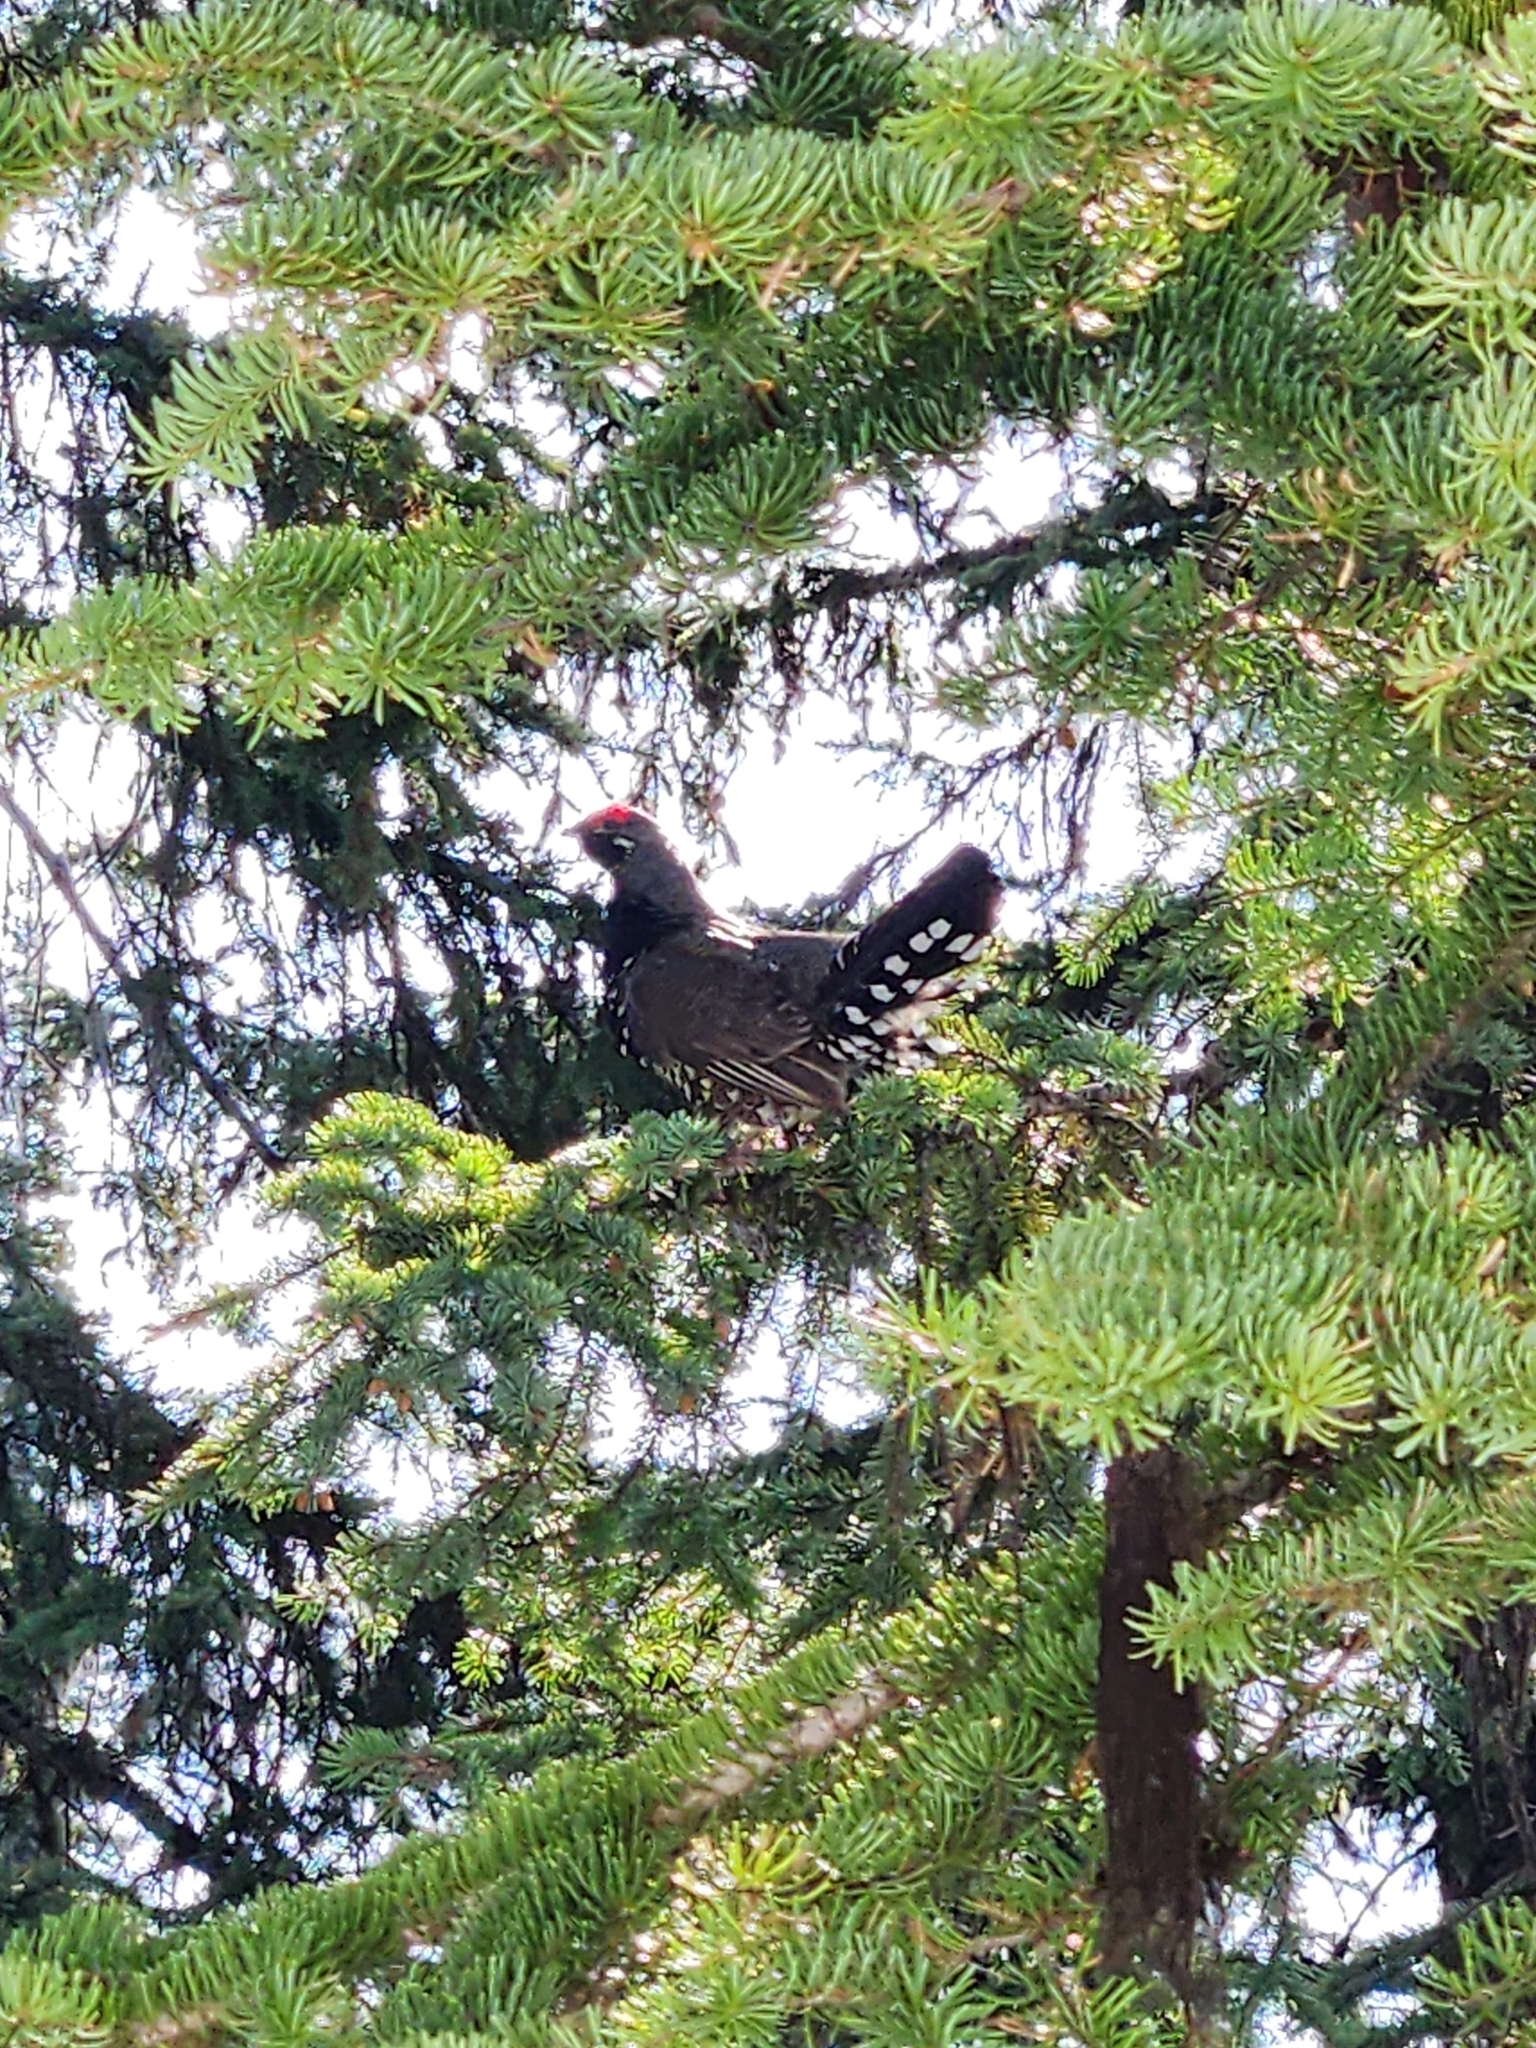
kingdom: Animalia
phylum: Chordata
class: Aves
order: Galliformes
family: Phasianidae
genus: Canachites
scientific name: Canachites canadensis
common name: Spruce grouse
